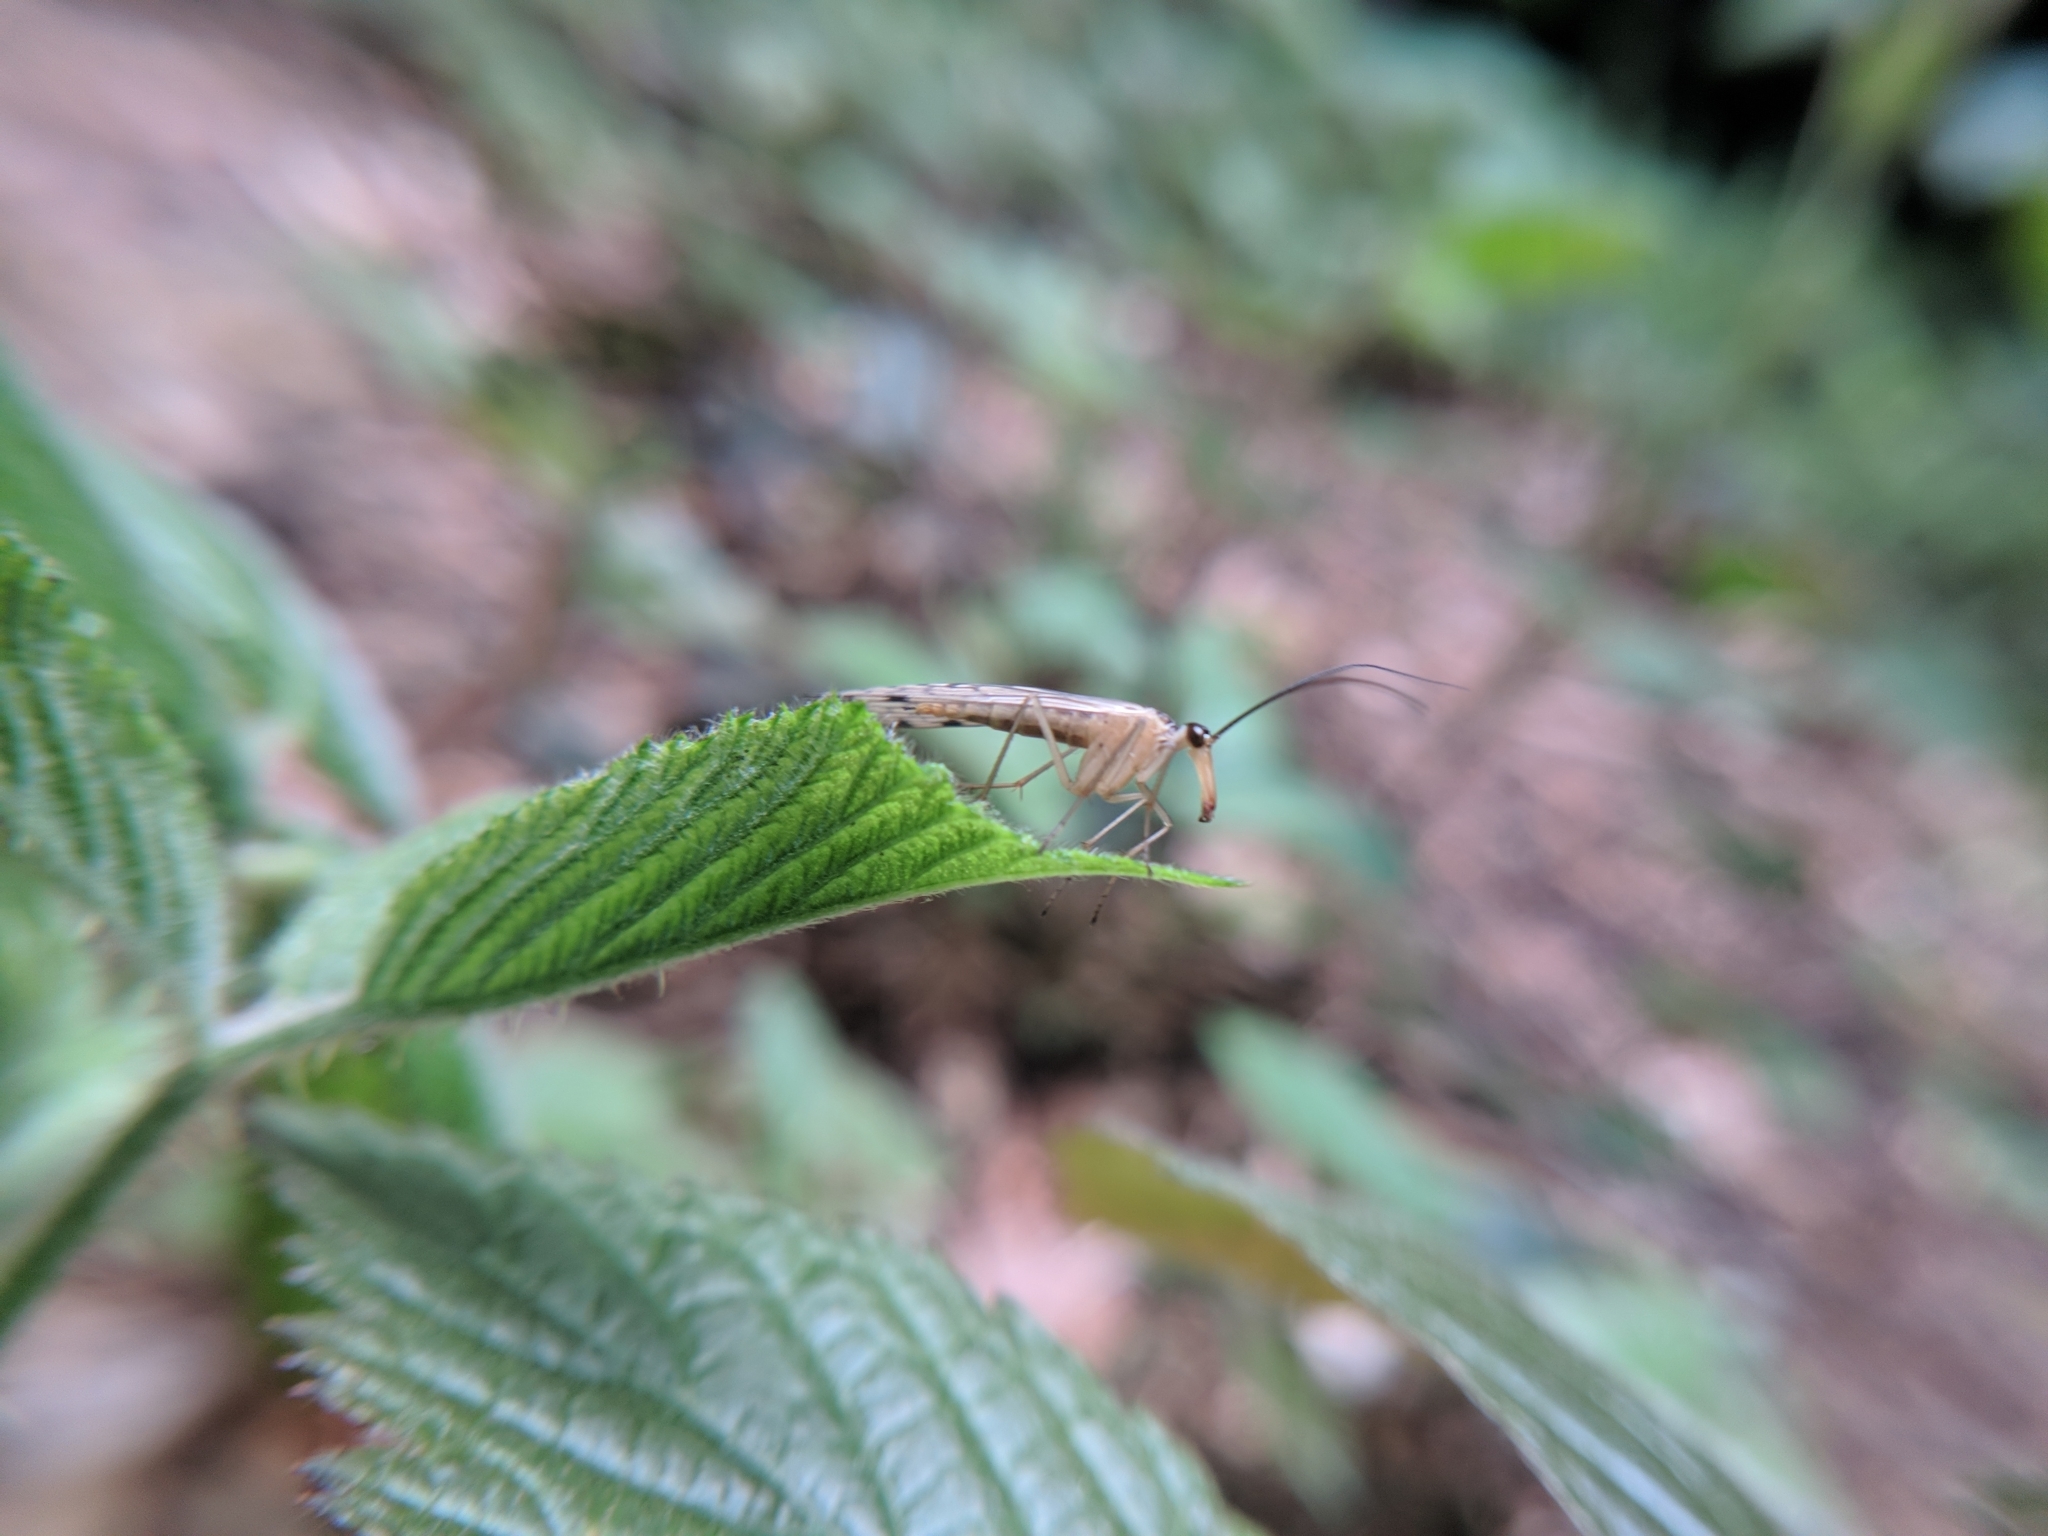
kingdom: Animalia
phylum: Arthropoda
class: Insecta
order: Mecoptera
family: Panorpidae
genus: Panorpa
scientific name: Panorpa alpina
